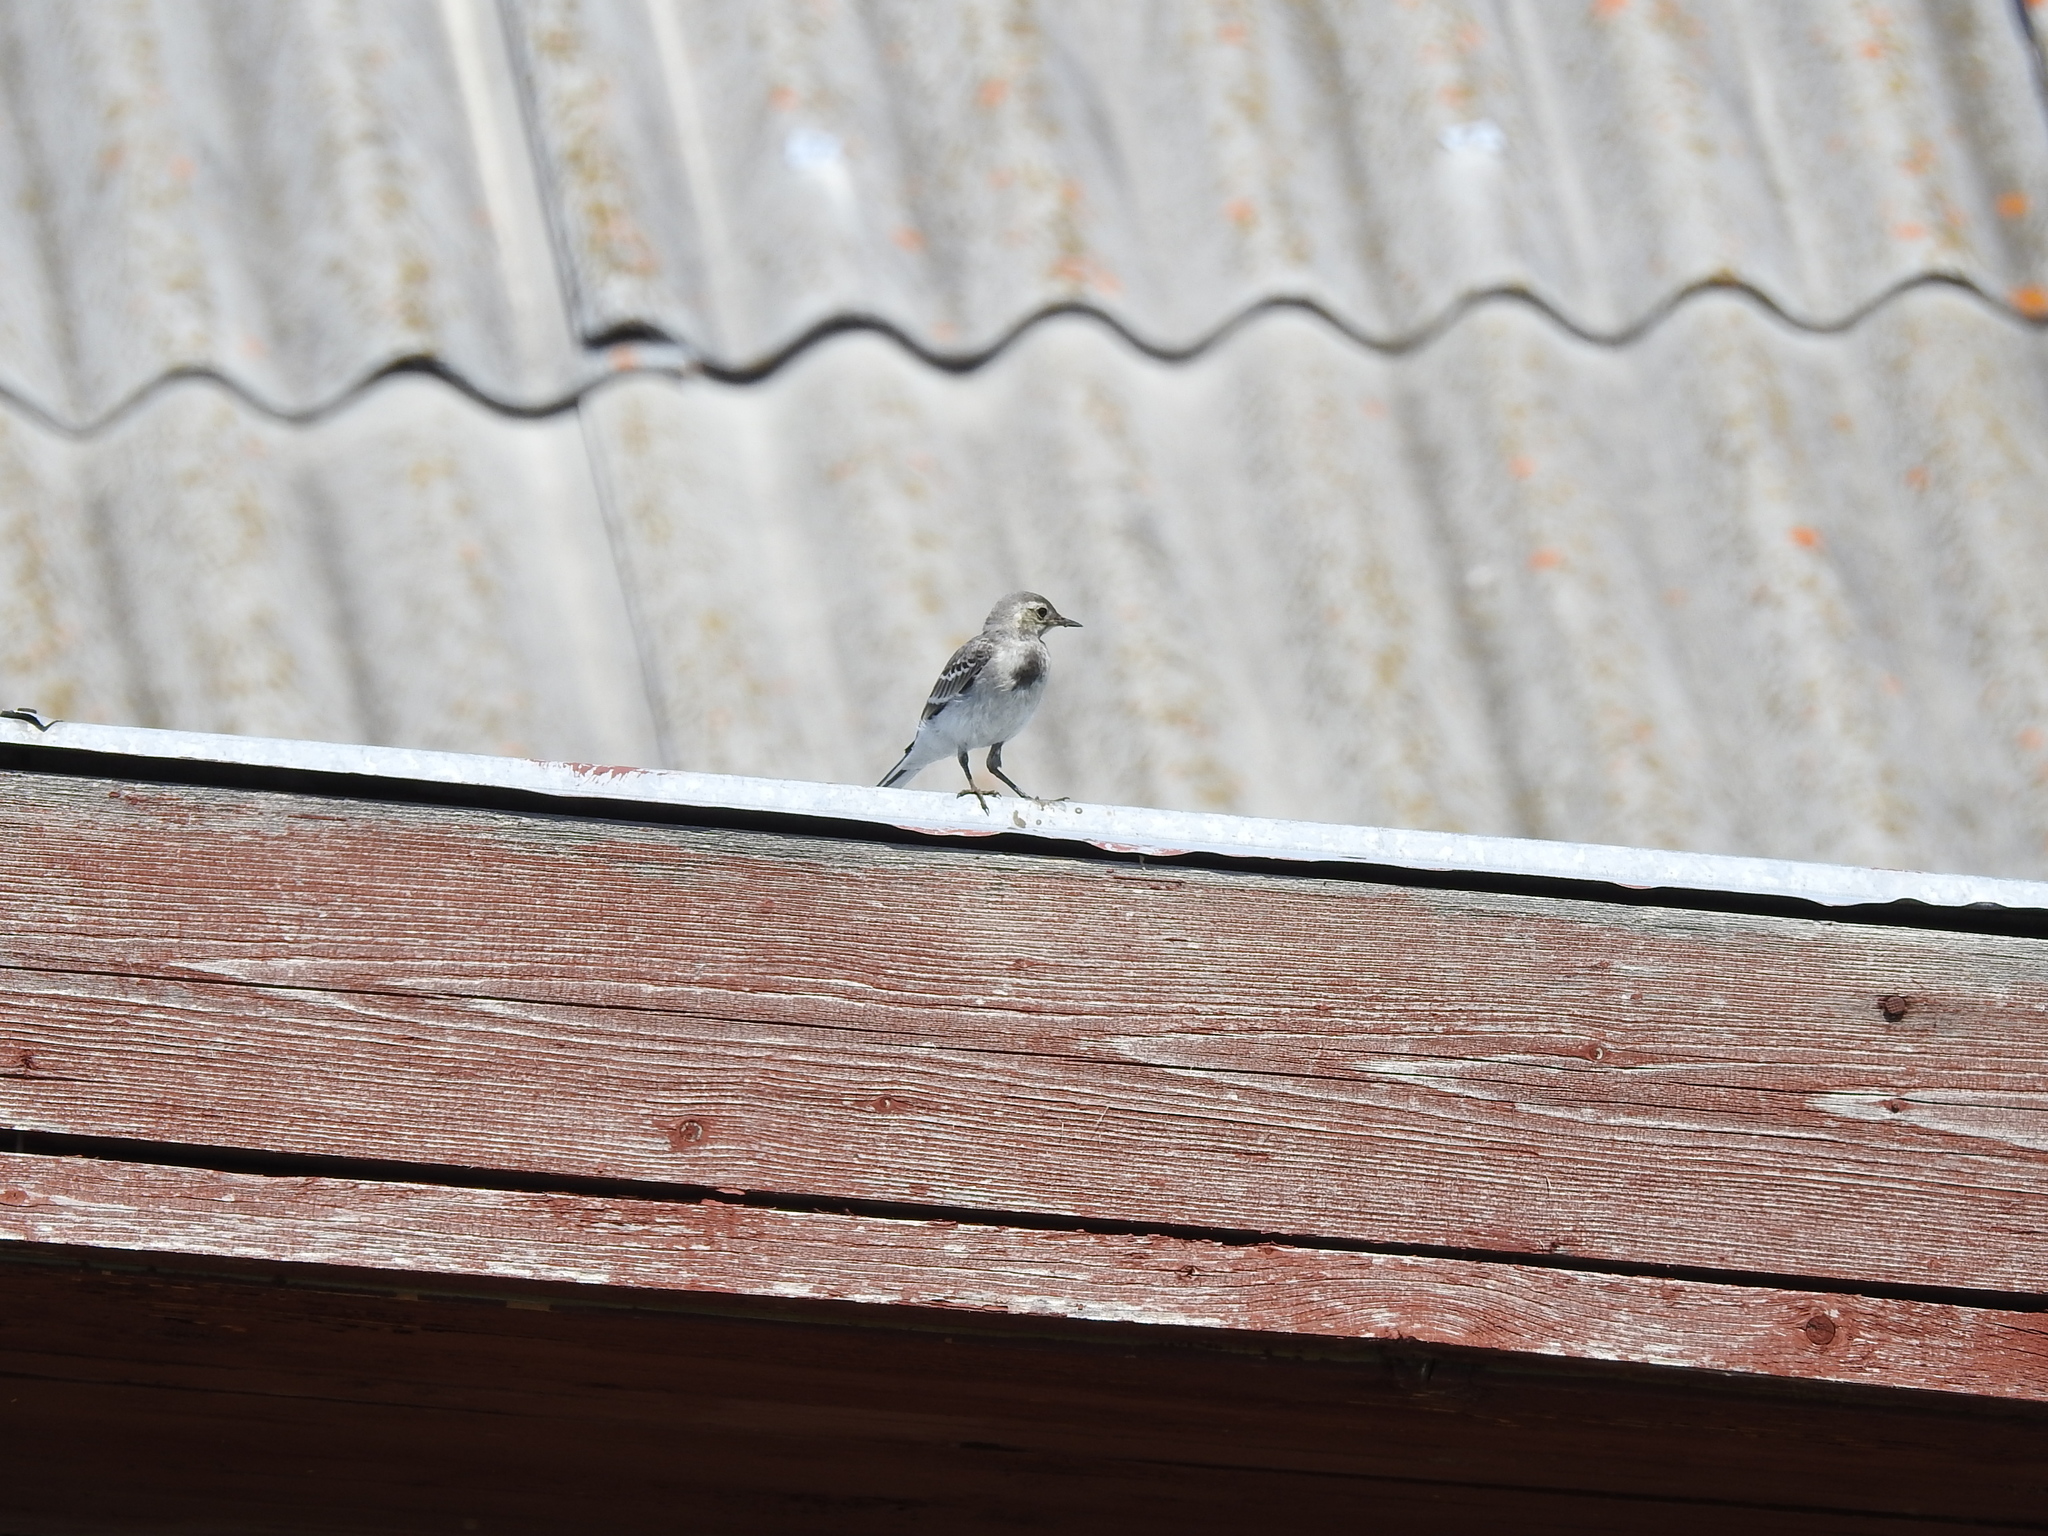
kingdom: Animalia
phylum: Chordata
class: Aves
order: Passeriformes
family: Motacillidae
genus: Motacilla
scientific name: Motacilla alba
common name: White wagtail
